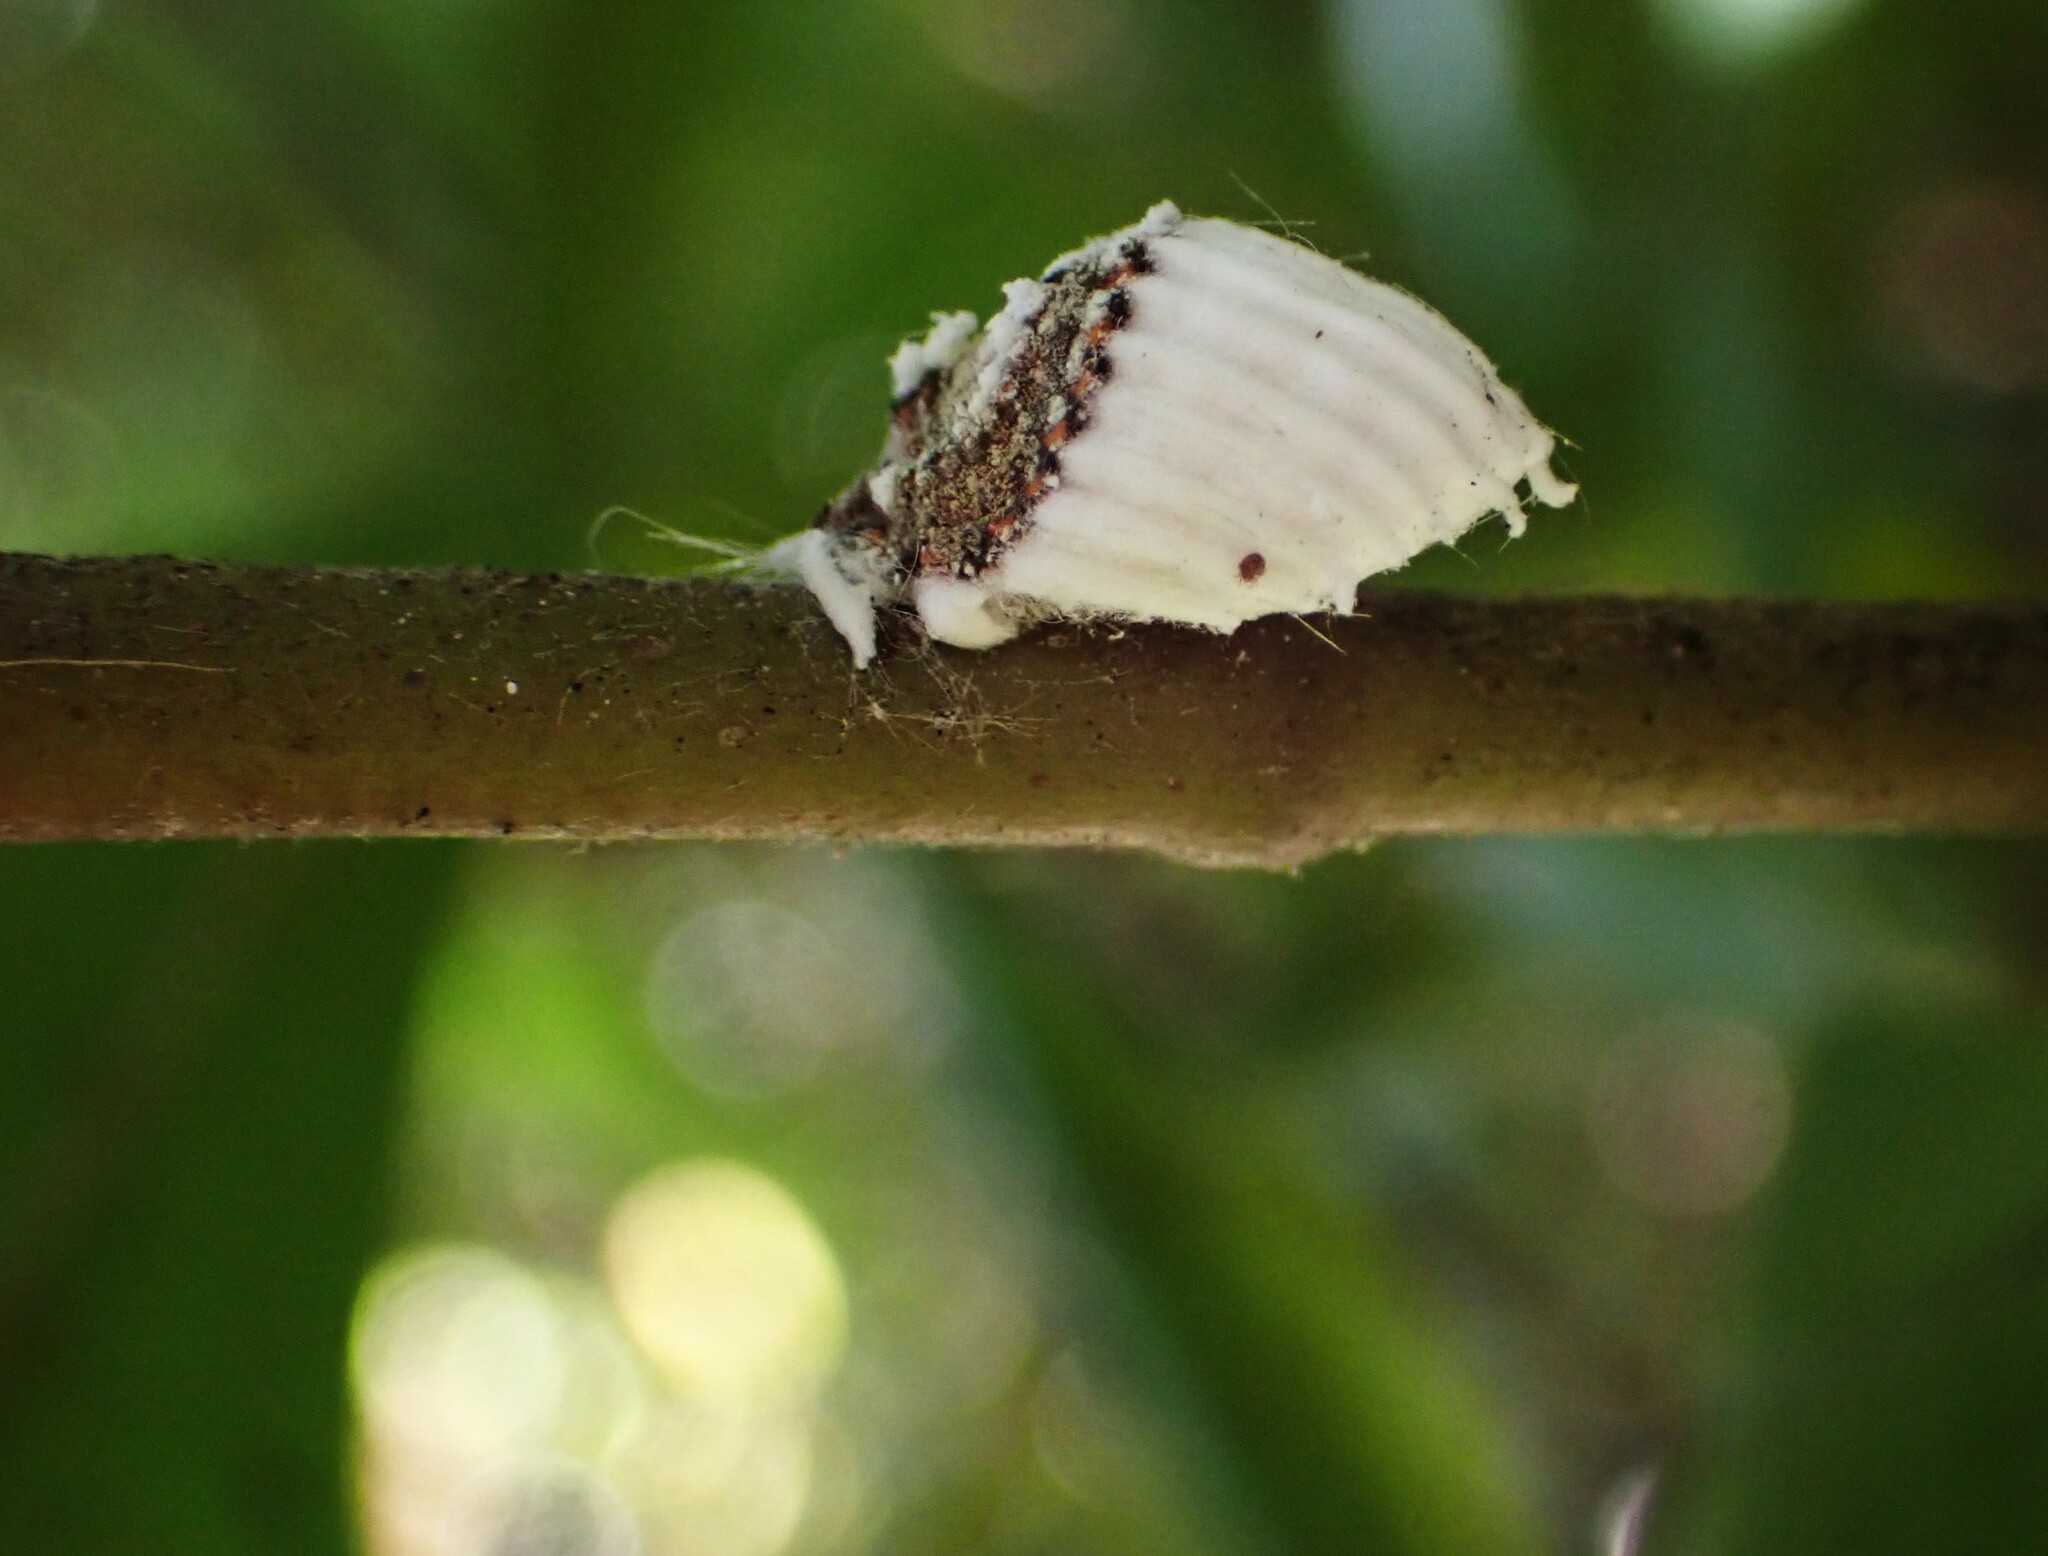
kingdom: Animalia
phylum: Arthropoda
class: Insecta
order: Hemiptera
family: Margarodidae
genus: Icerya
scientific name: Icerya purchasi
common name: Cottony cushion scale
